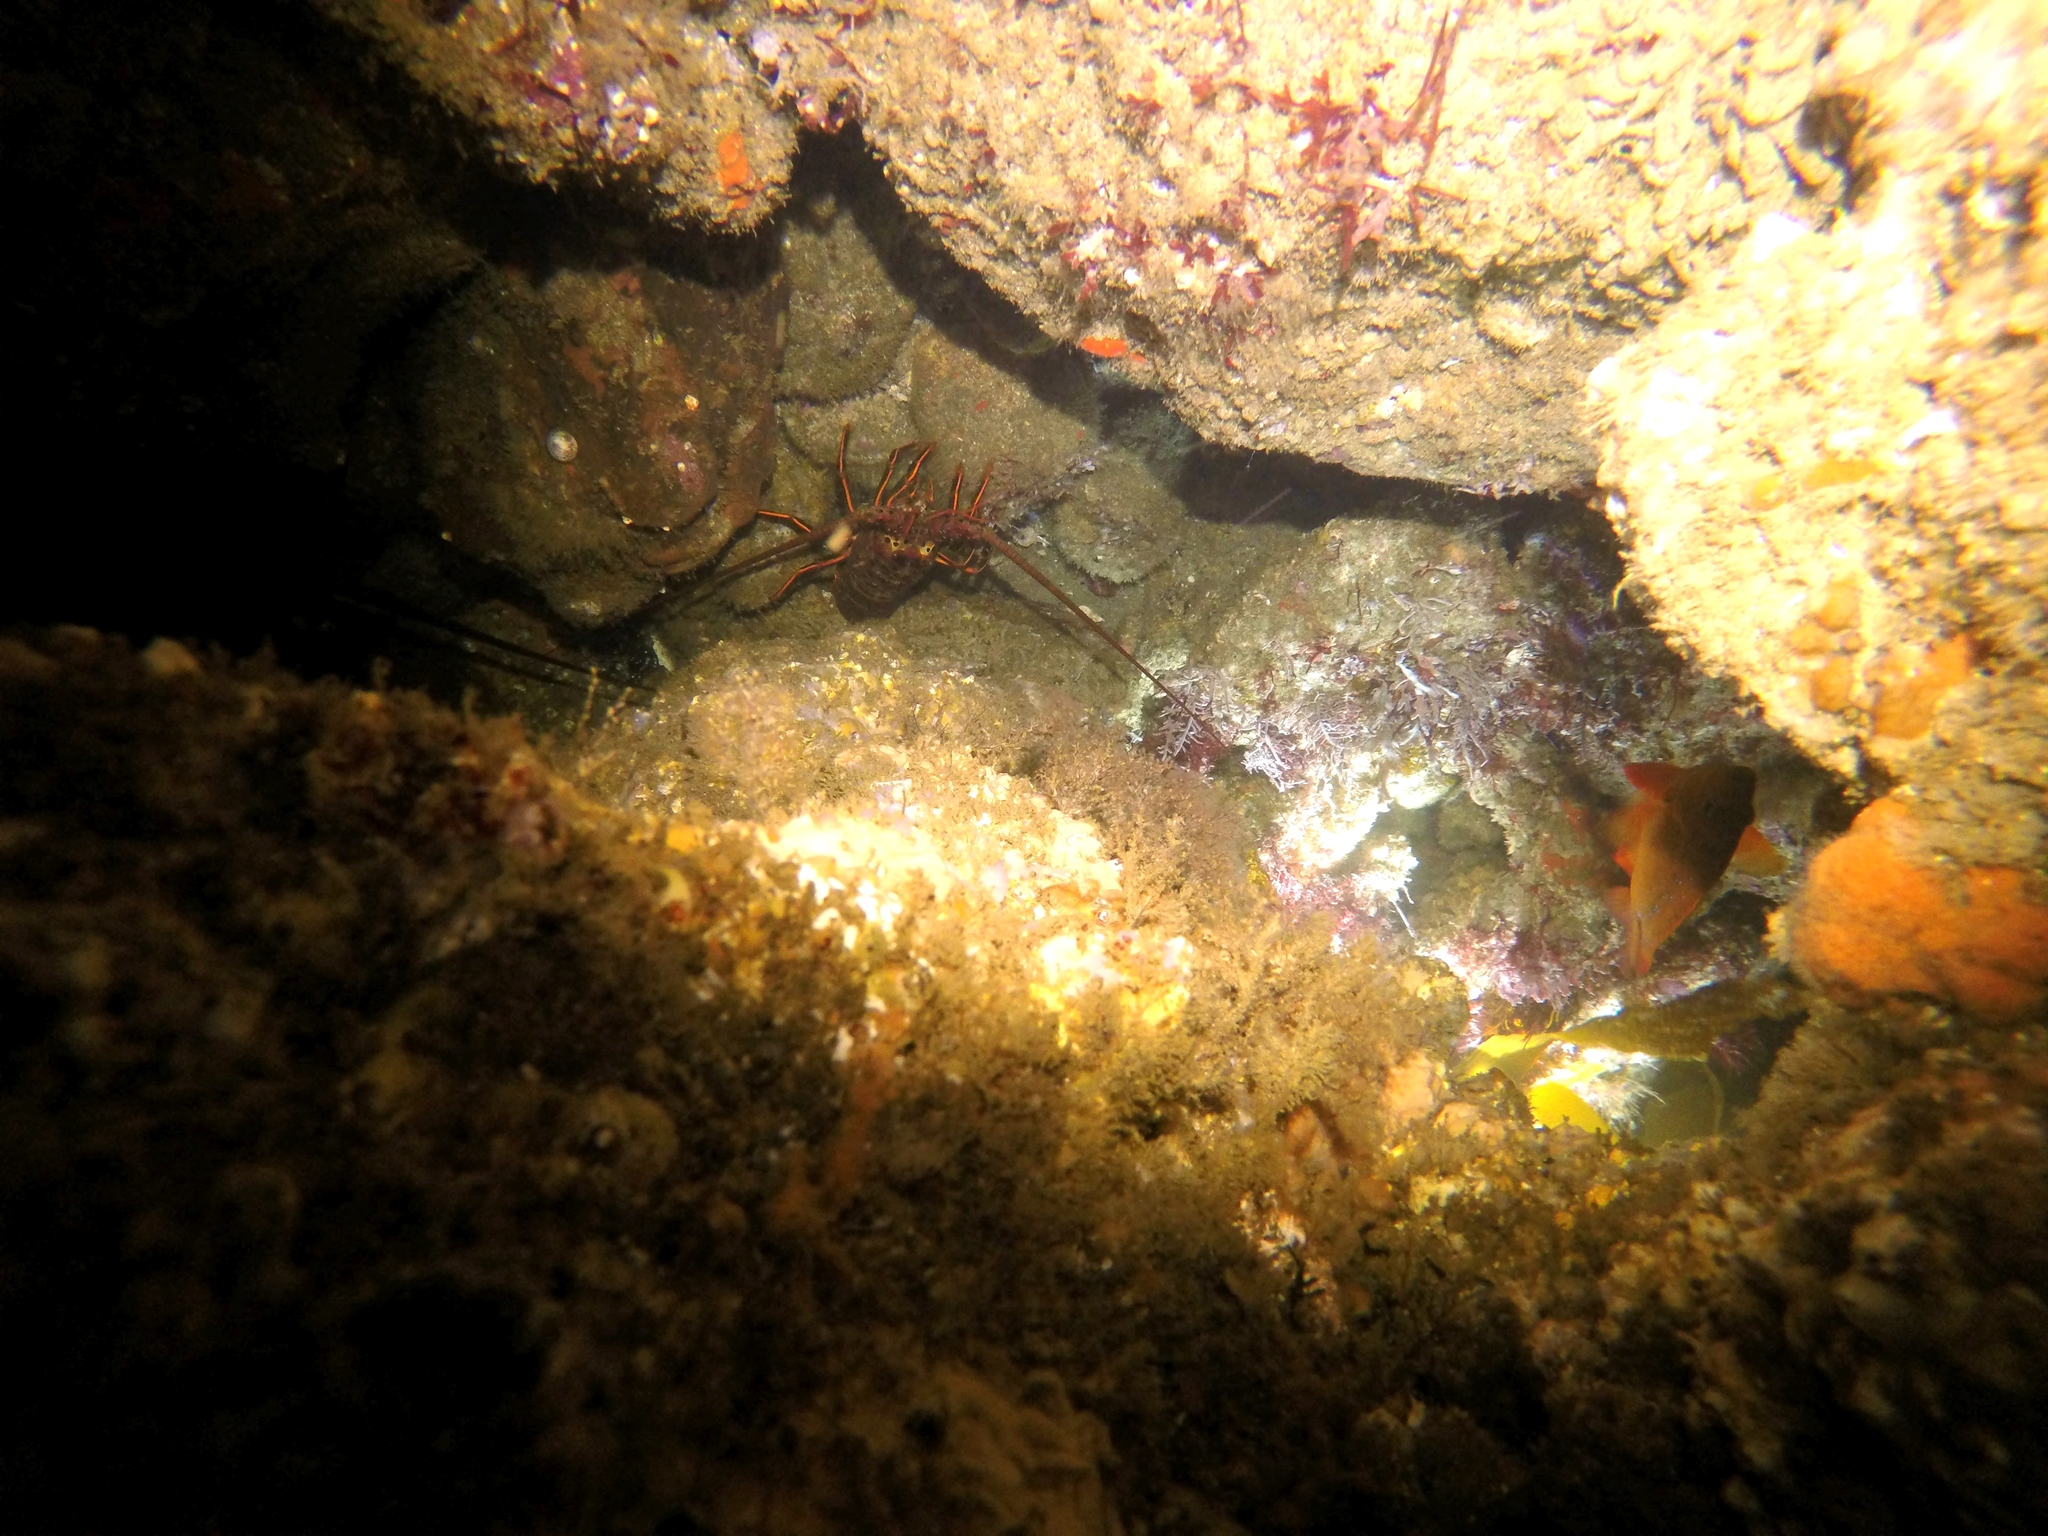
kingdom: Animalia
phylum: Arthropoda
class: Malacostraca
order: Decapoda
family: Palinuridae
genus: Panulirus
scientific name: Panulirus interruptus
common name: California spiny lobster
